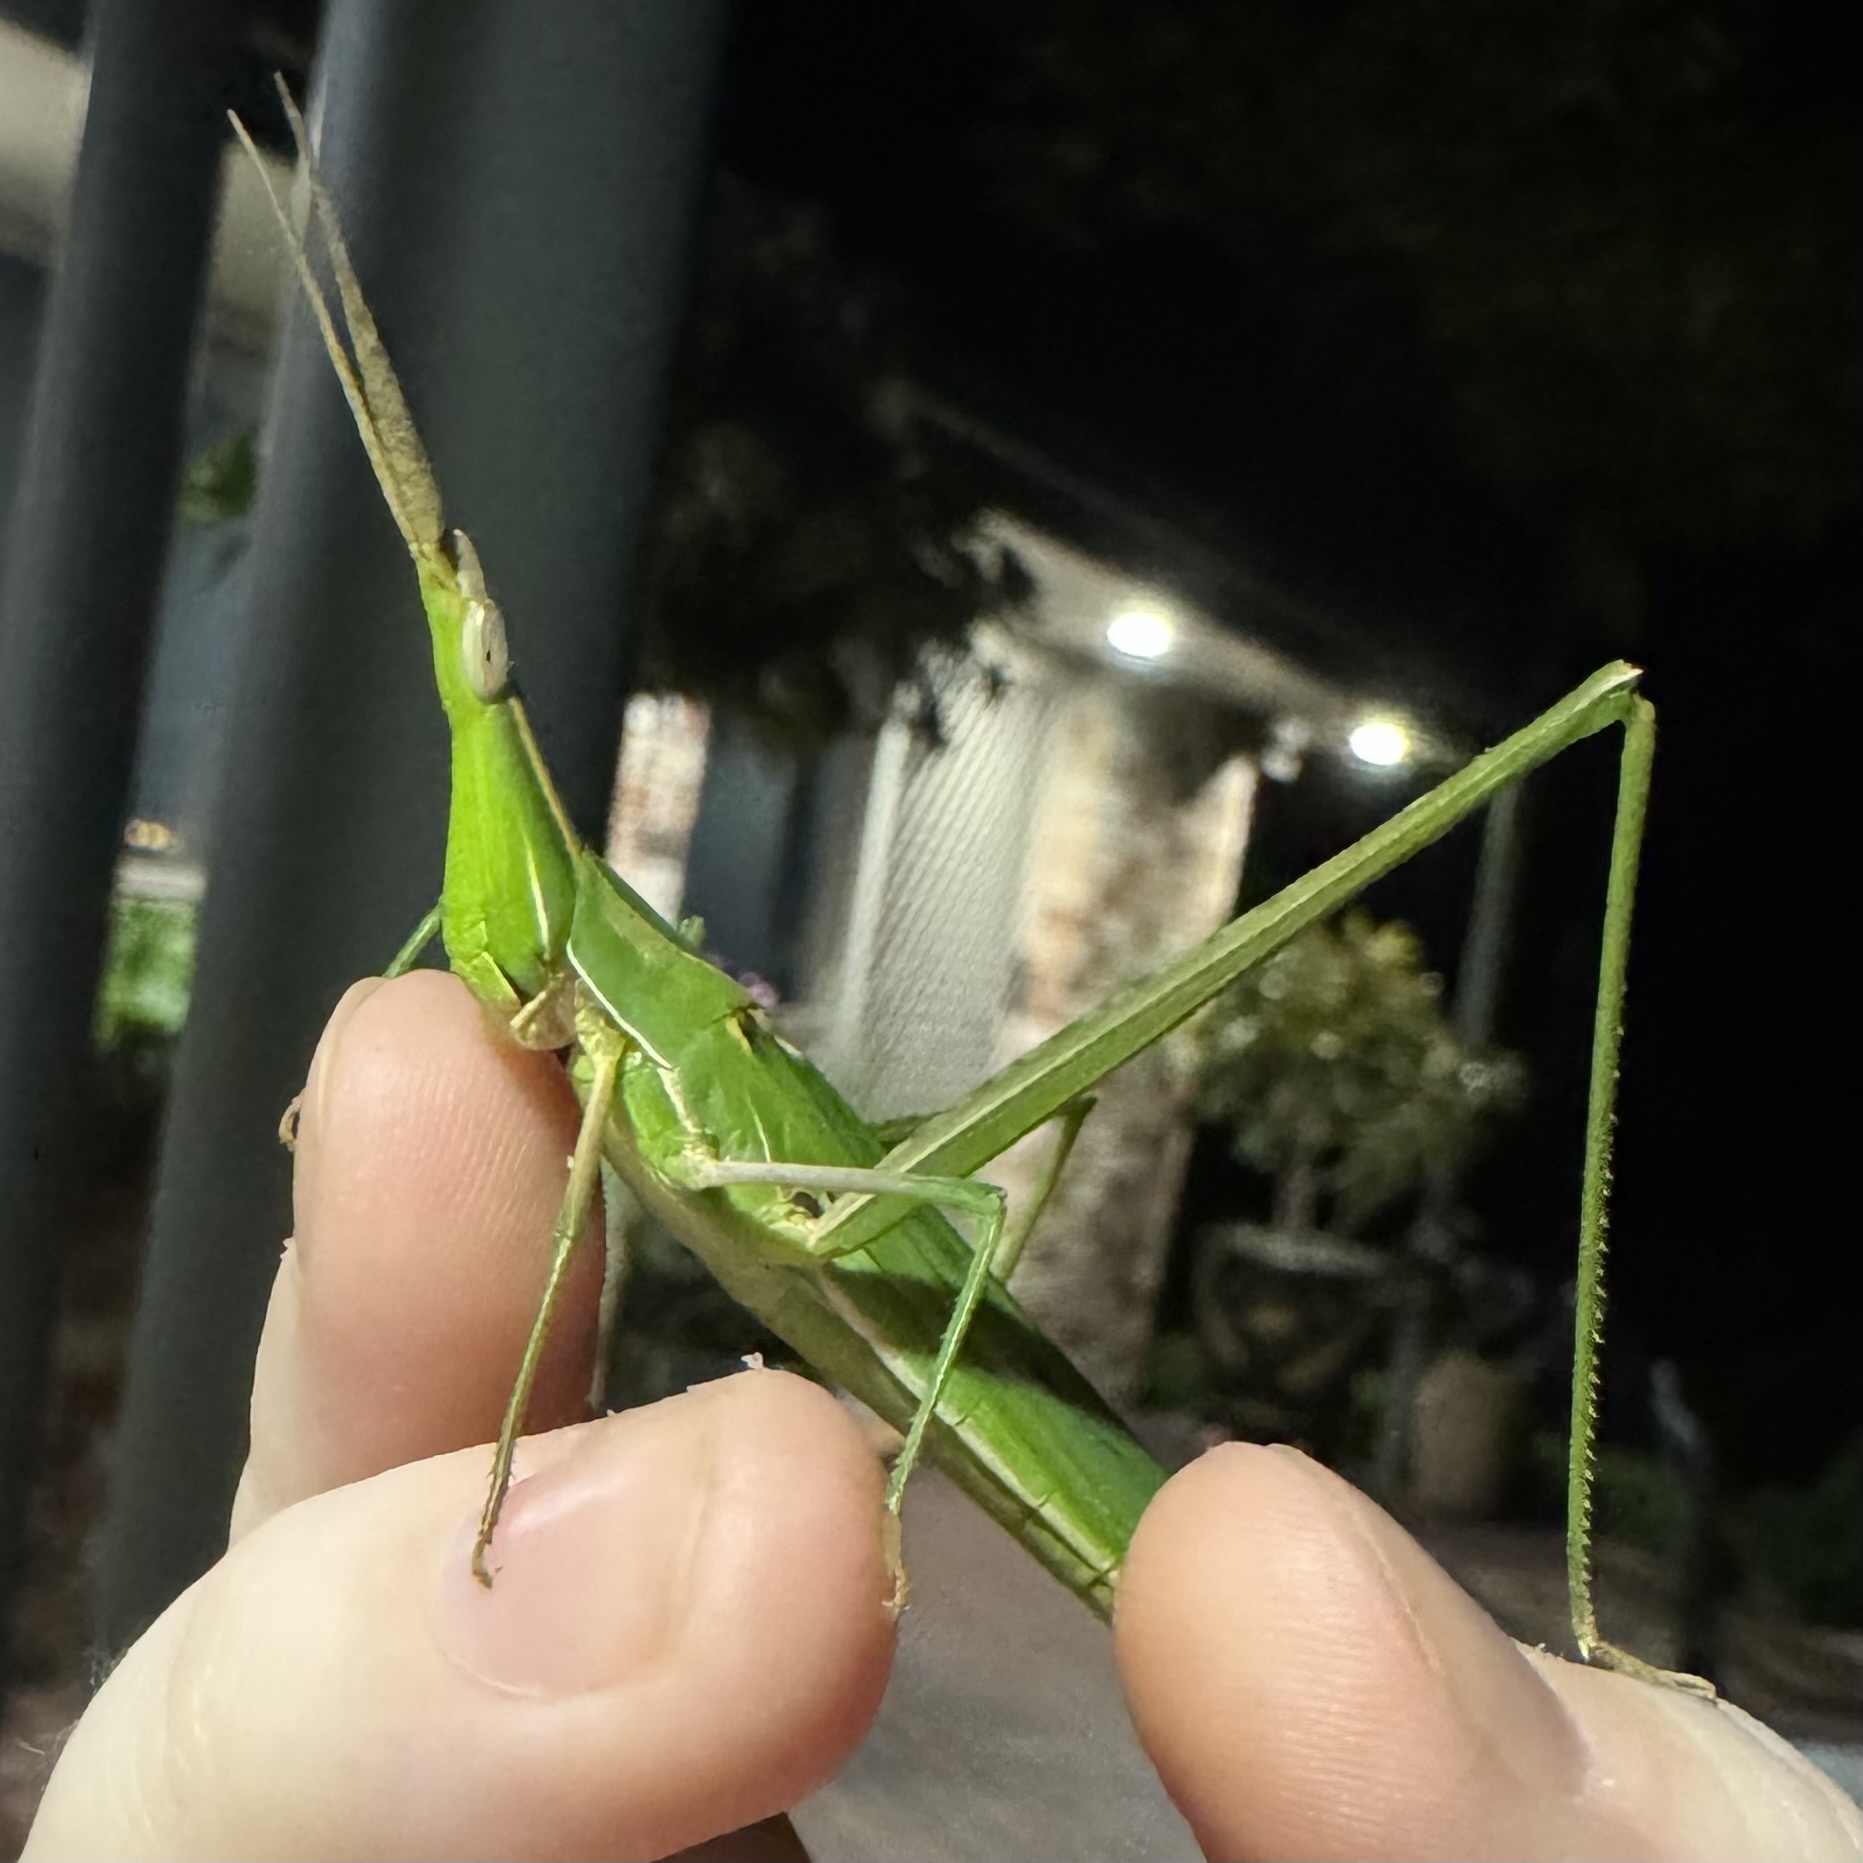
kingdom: Animalia
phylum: Arthropoda
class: Insecta
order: Orthoptera
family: Acrididae
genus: Acrida
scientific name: Acrida conica
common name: Giant green slantface
